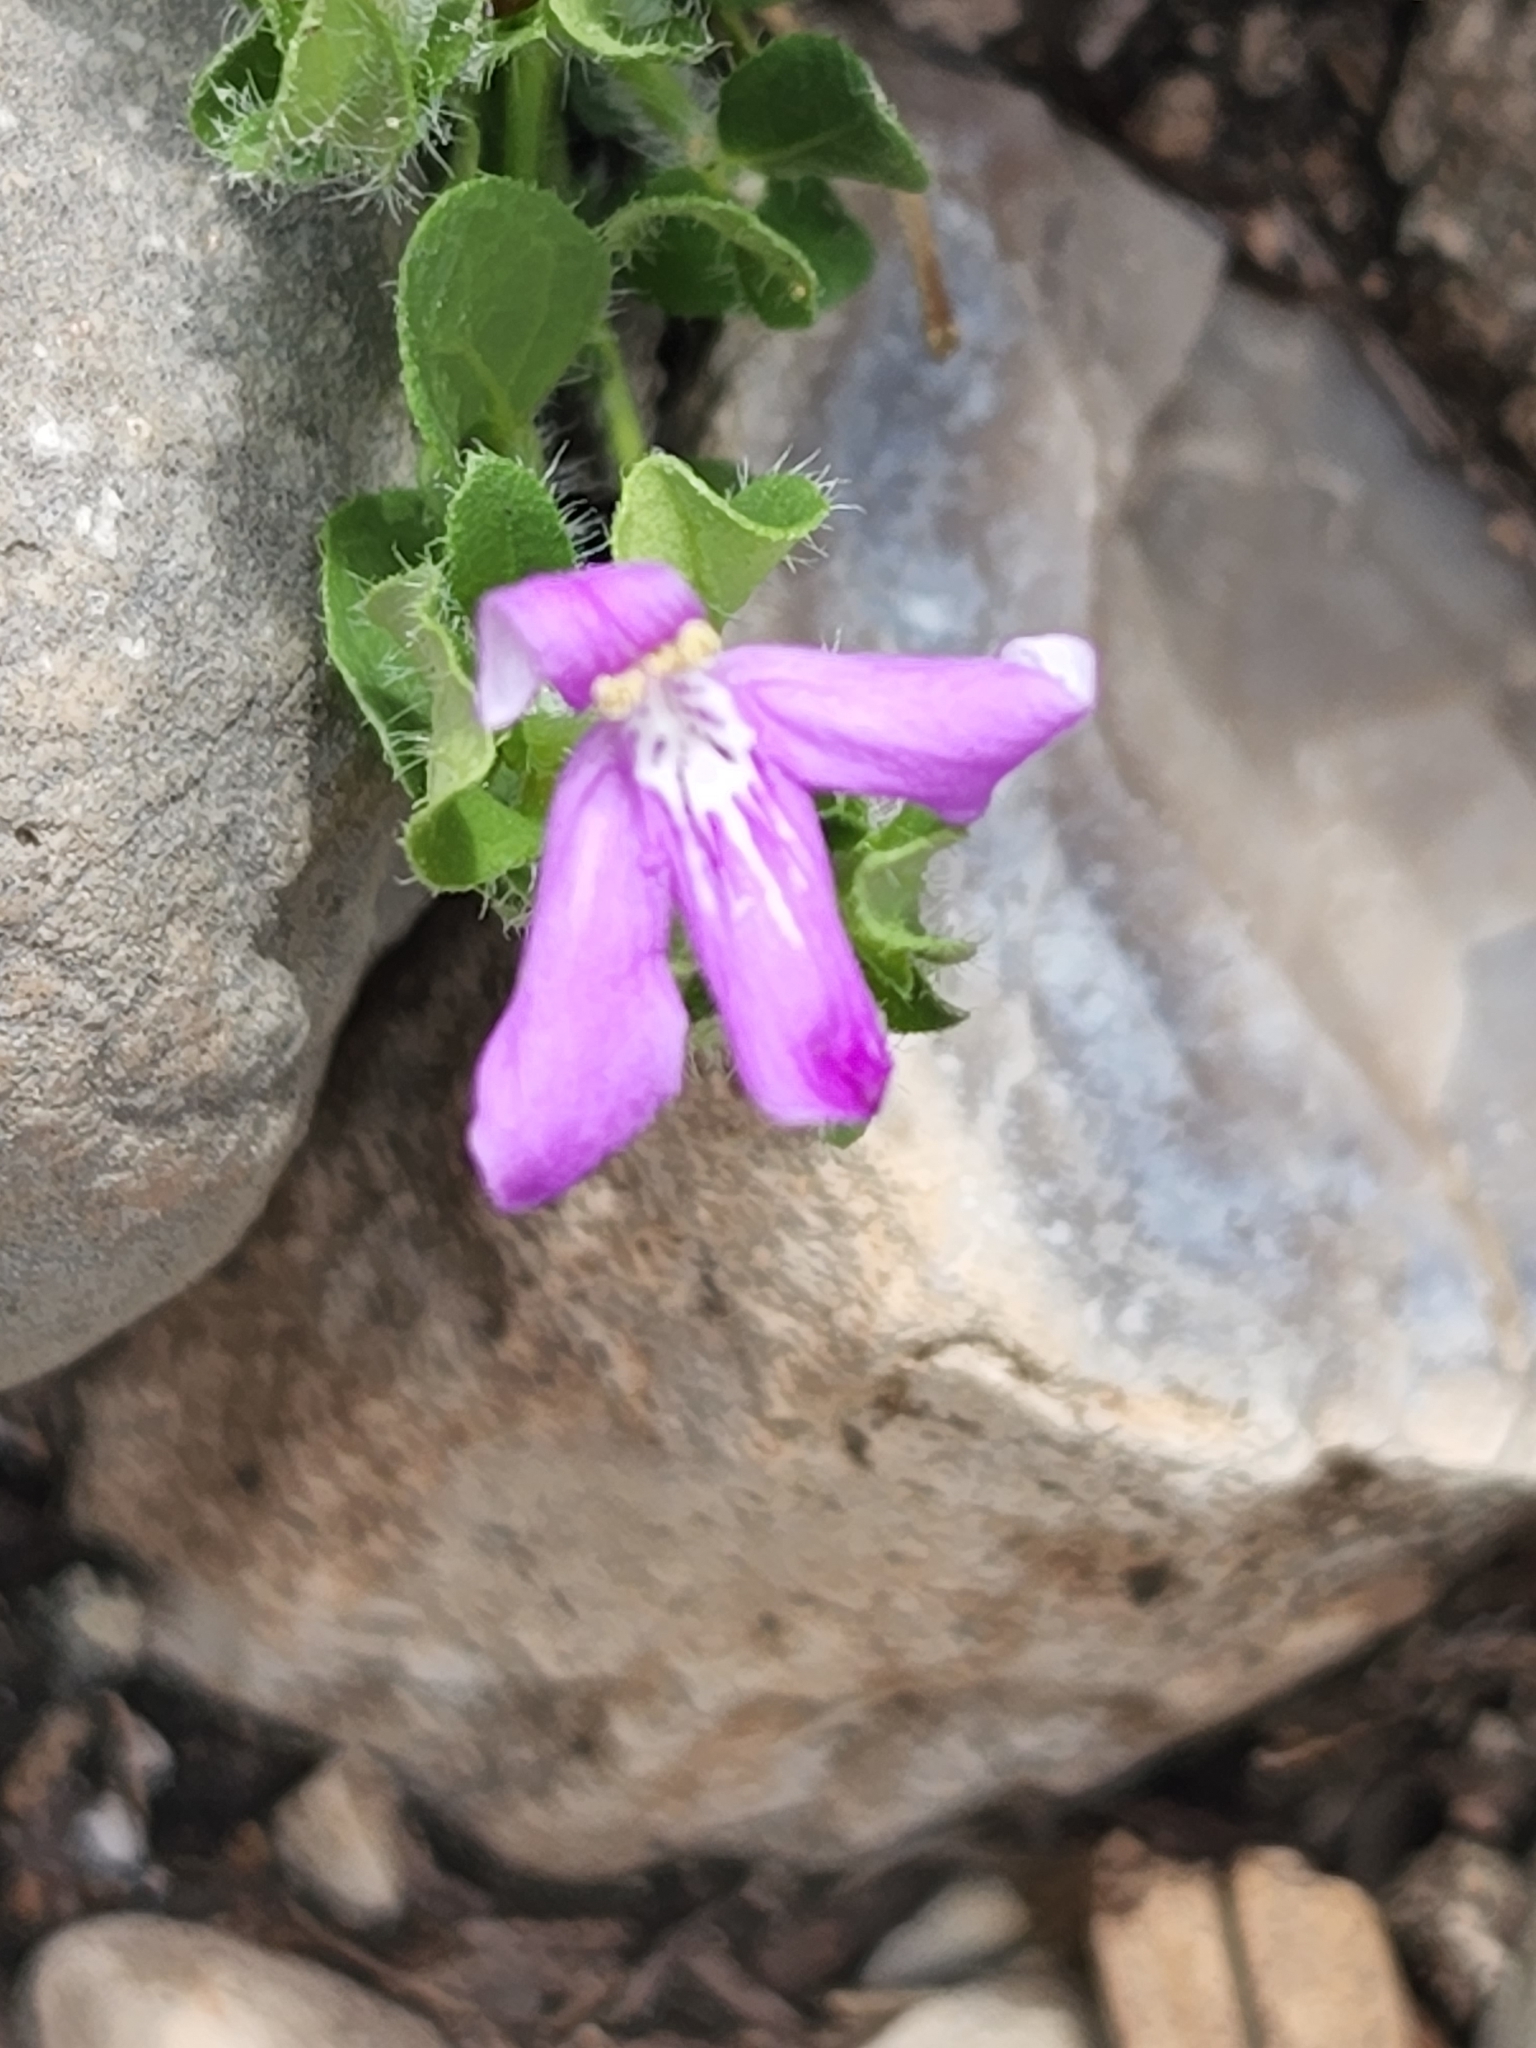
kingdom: Plantae
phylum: Tracheophyta
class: Magnoliopsida
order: Lamiales
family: Acanthaceae
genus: Justicia
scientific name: Justicia pilosella
